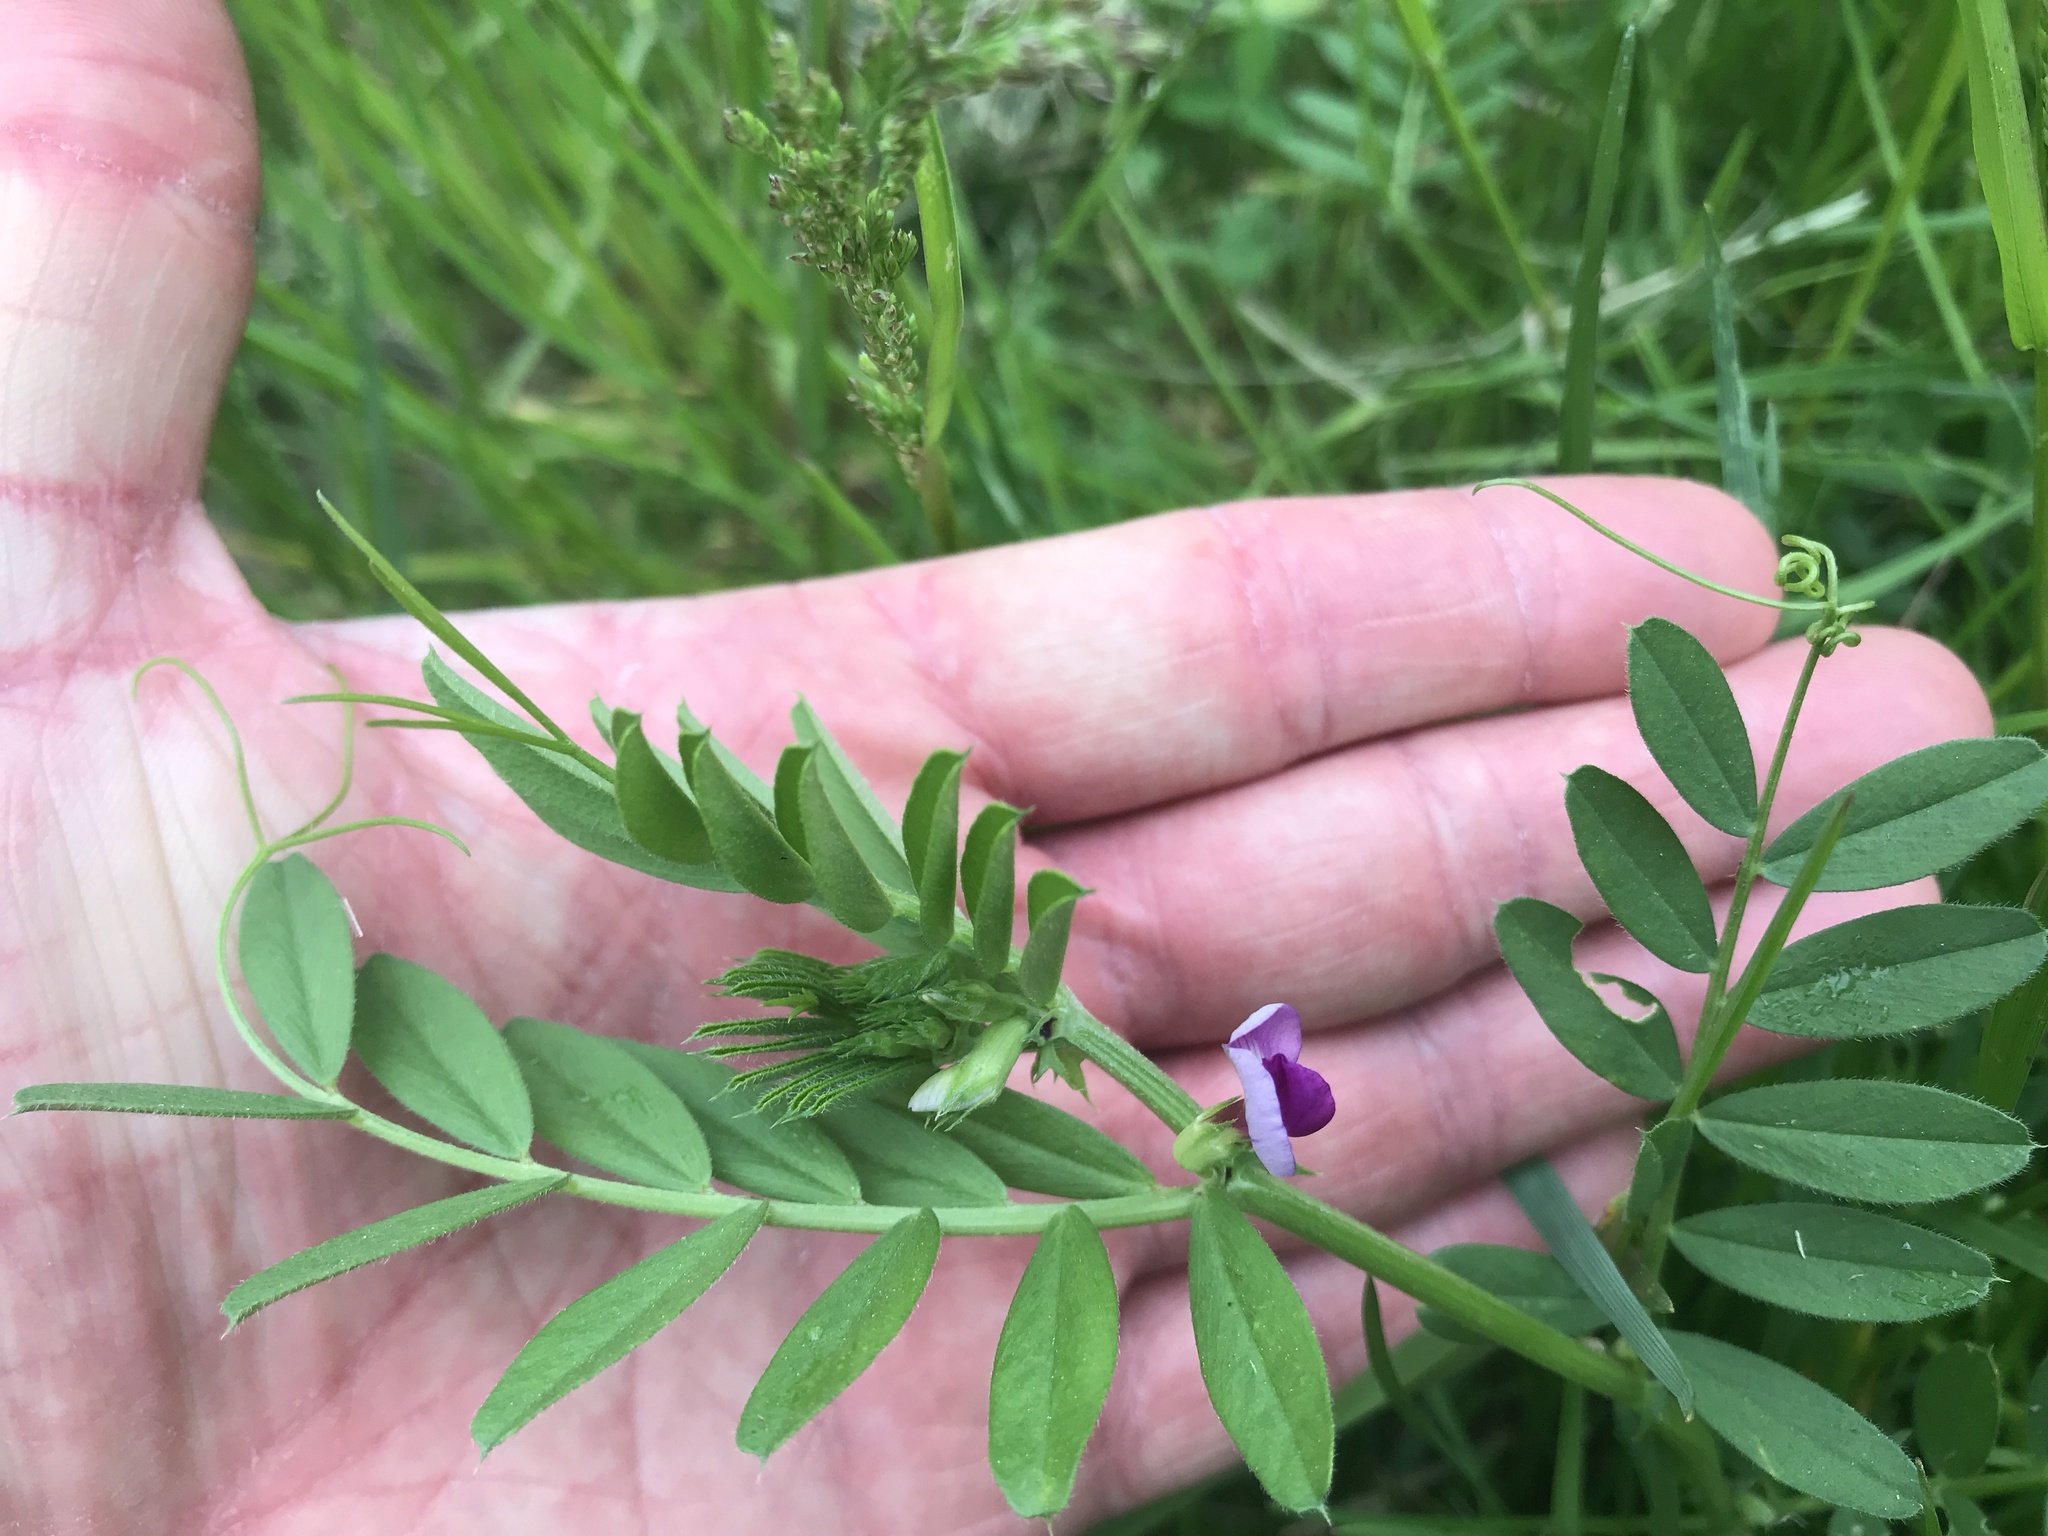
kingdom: Plantae
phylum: Tracheophyta
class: Magnoliopsida
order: Fabales
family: Fabaceae
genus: Vicia
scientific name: Vicia sativa
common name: Garden vetch
